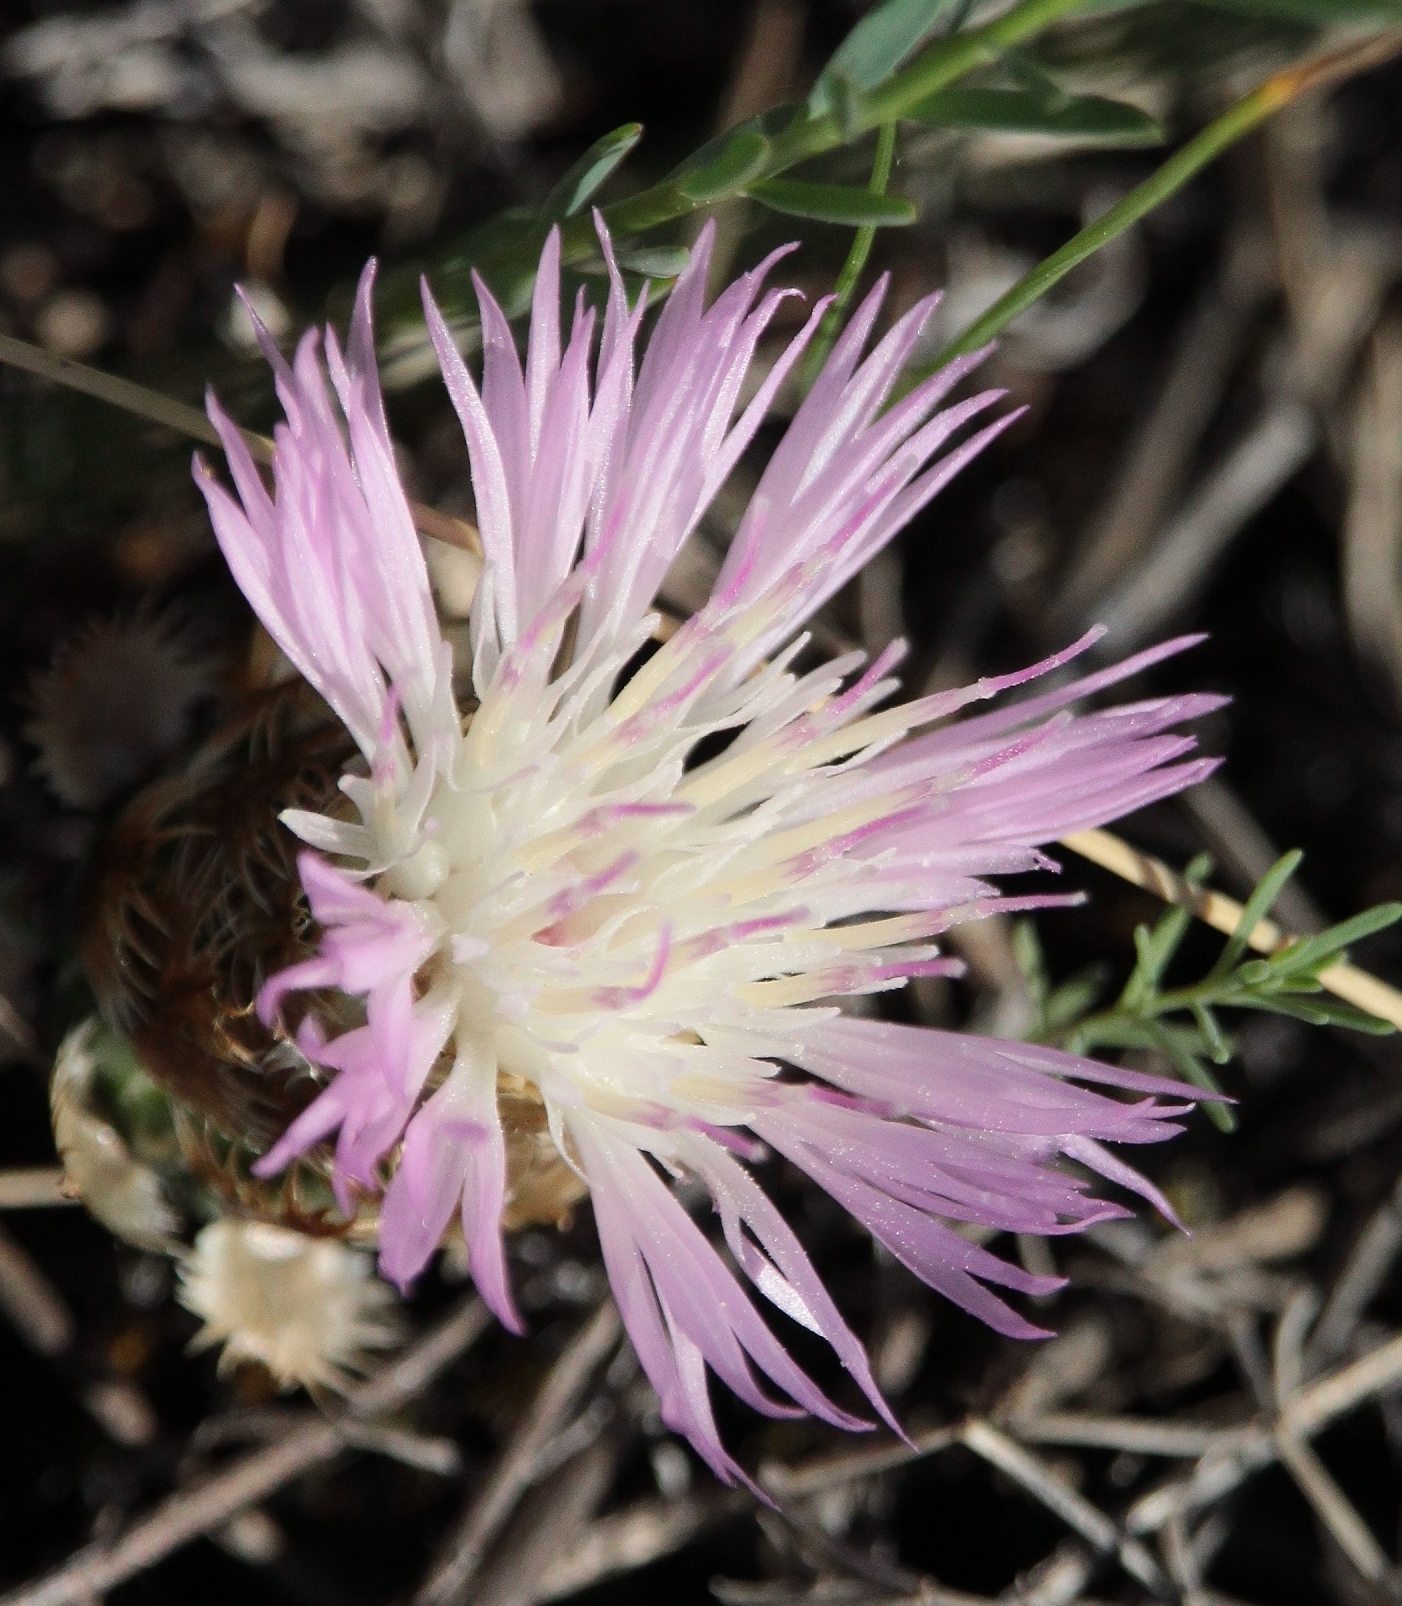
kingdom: Plantae
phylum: Tracheophyta
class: Magnoliopsida
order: Asterales
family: Asteraceae
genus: Psephellus
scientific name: Psephellus marschallianus
